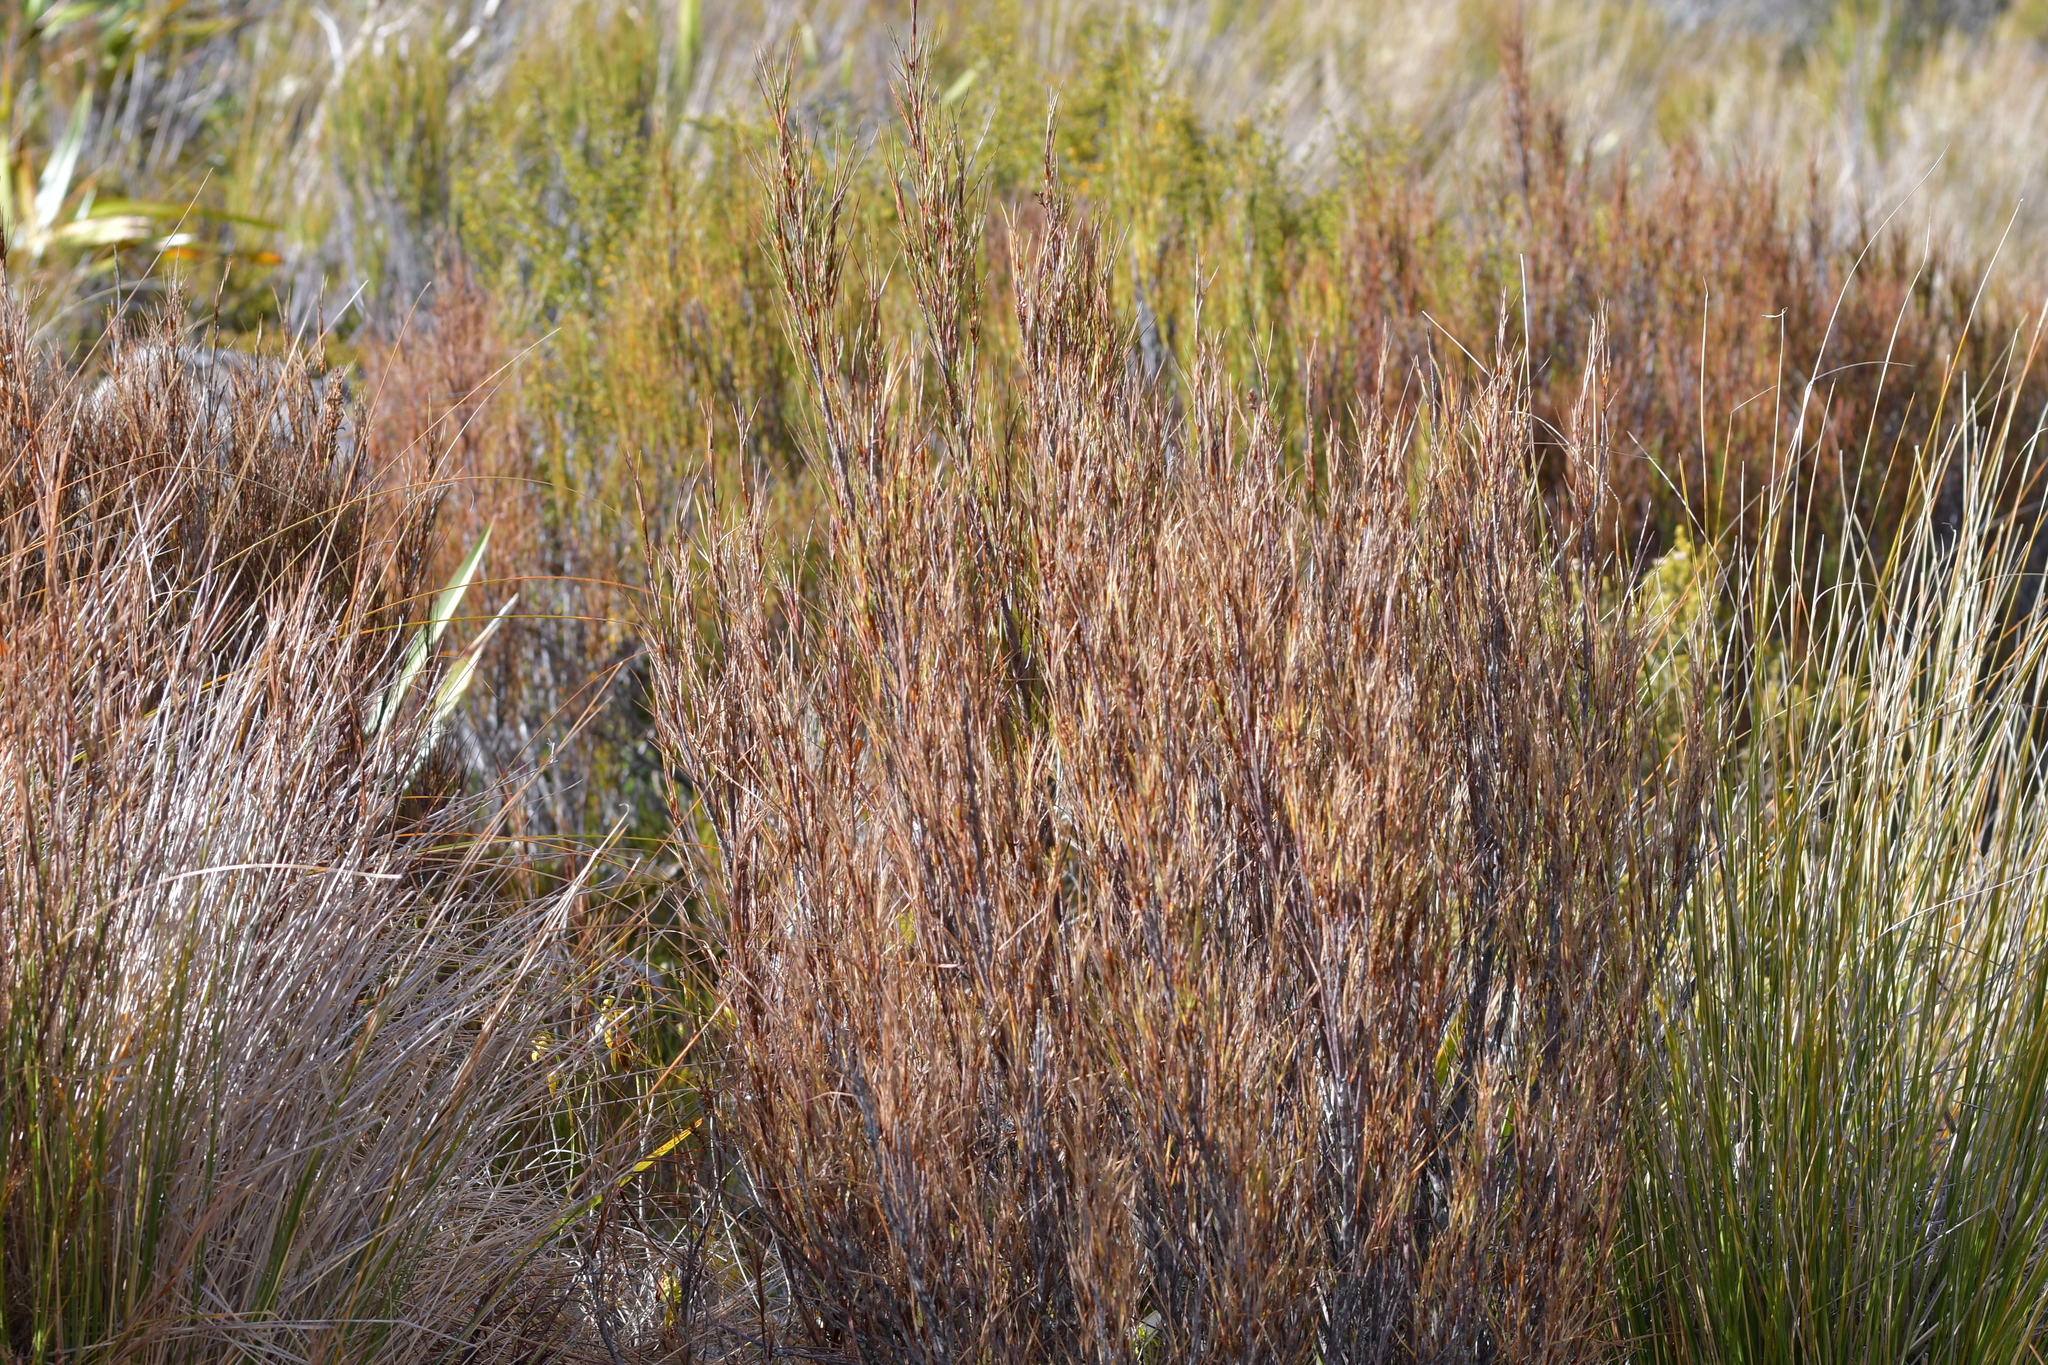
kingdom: Plantae
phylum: Tracheophyta
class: Magnoliopsida
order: Ericales
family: Ericaceae
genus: Dracophyllum
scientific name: Dracophyllum longifolium
